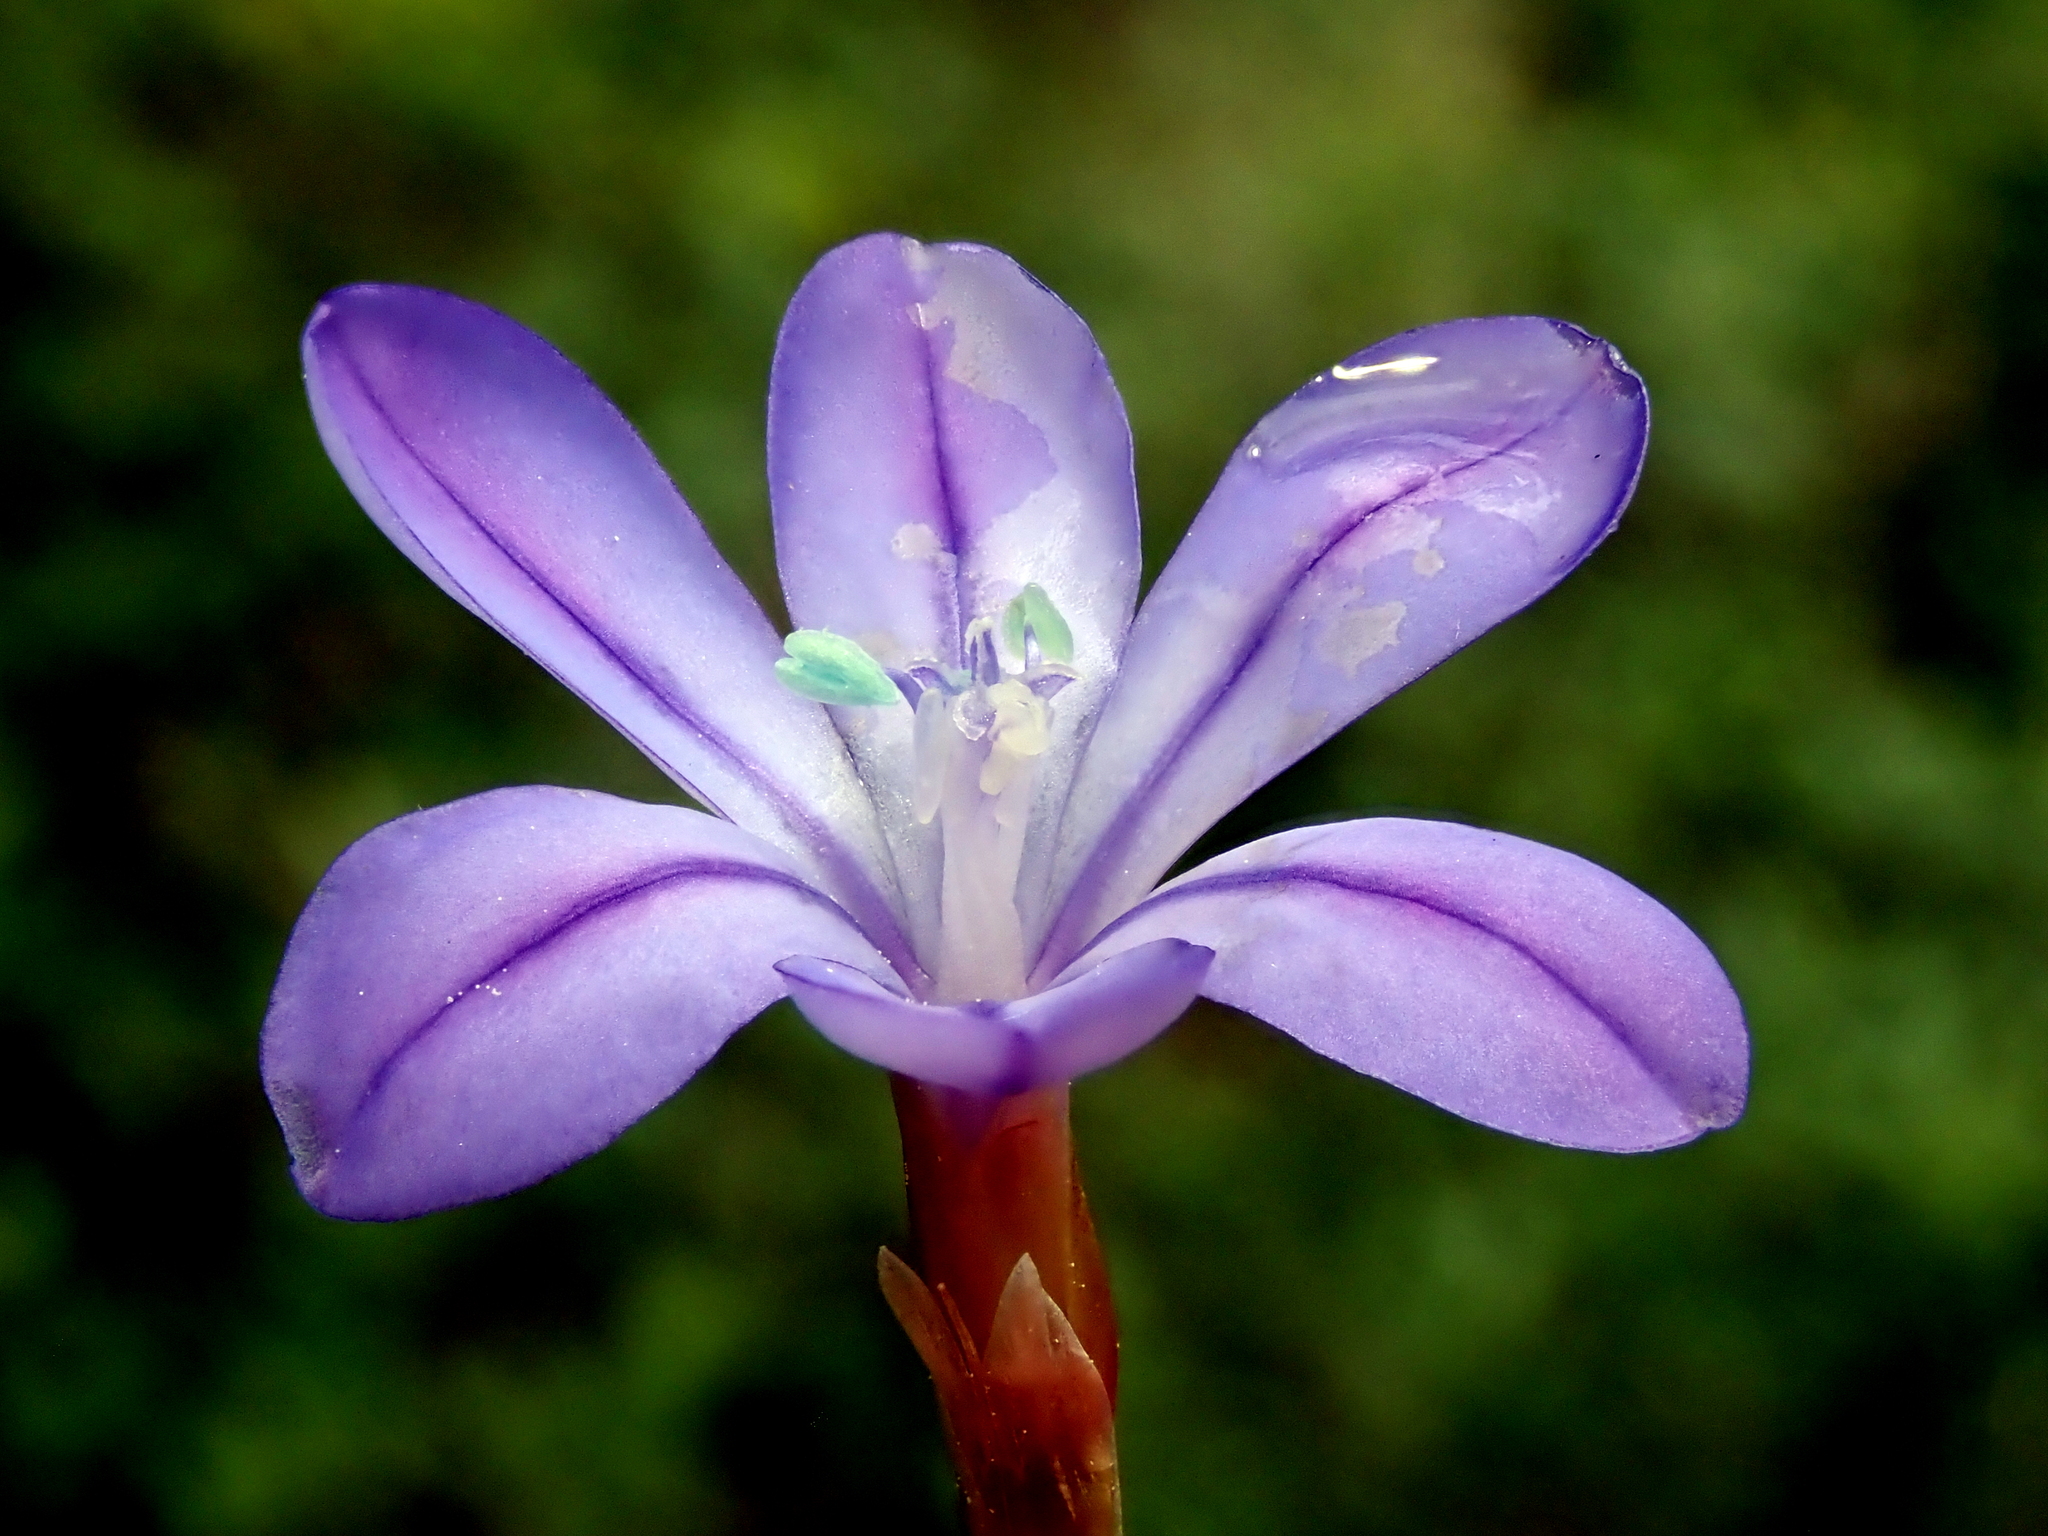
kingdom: Plantae
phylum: Tracheophyta
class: Liliopsida
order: Asparagales
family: Asparagaceae
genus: Aphyllanthes
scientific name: Aphyllanthes monspeliensis
